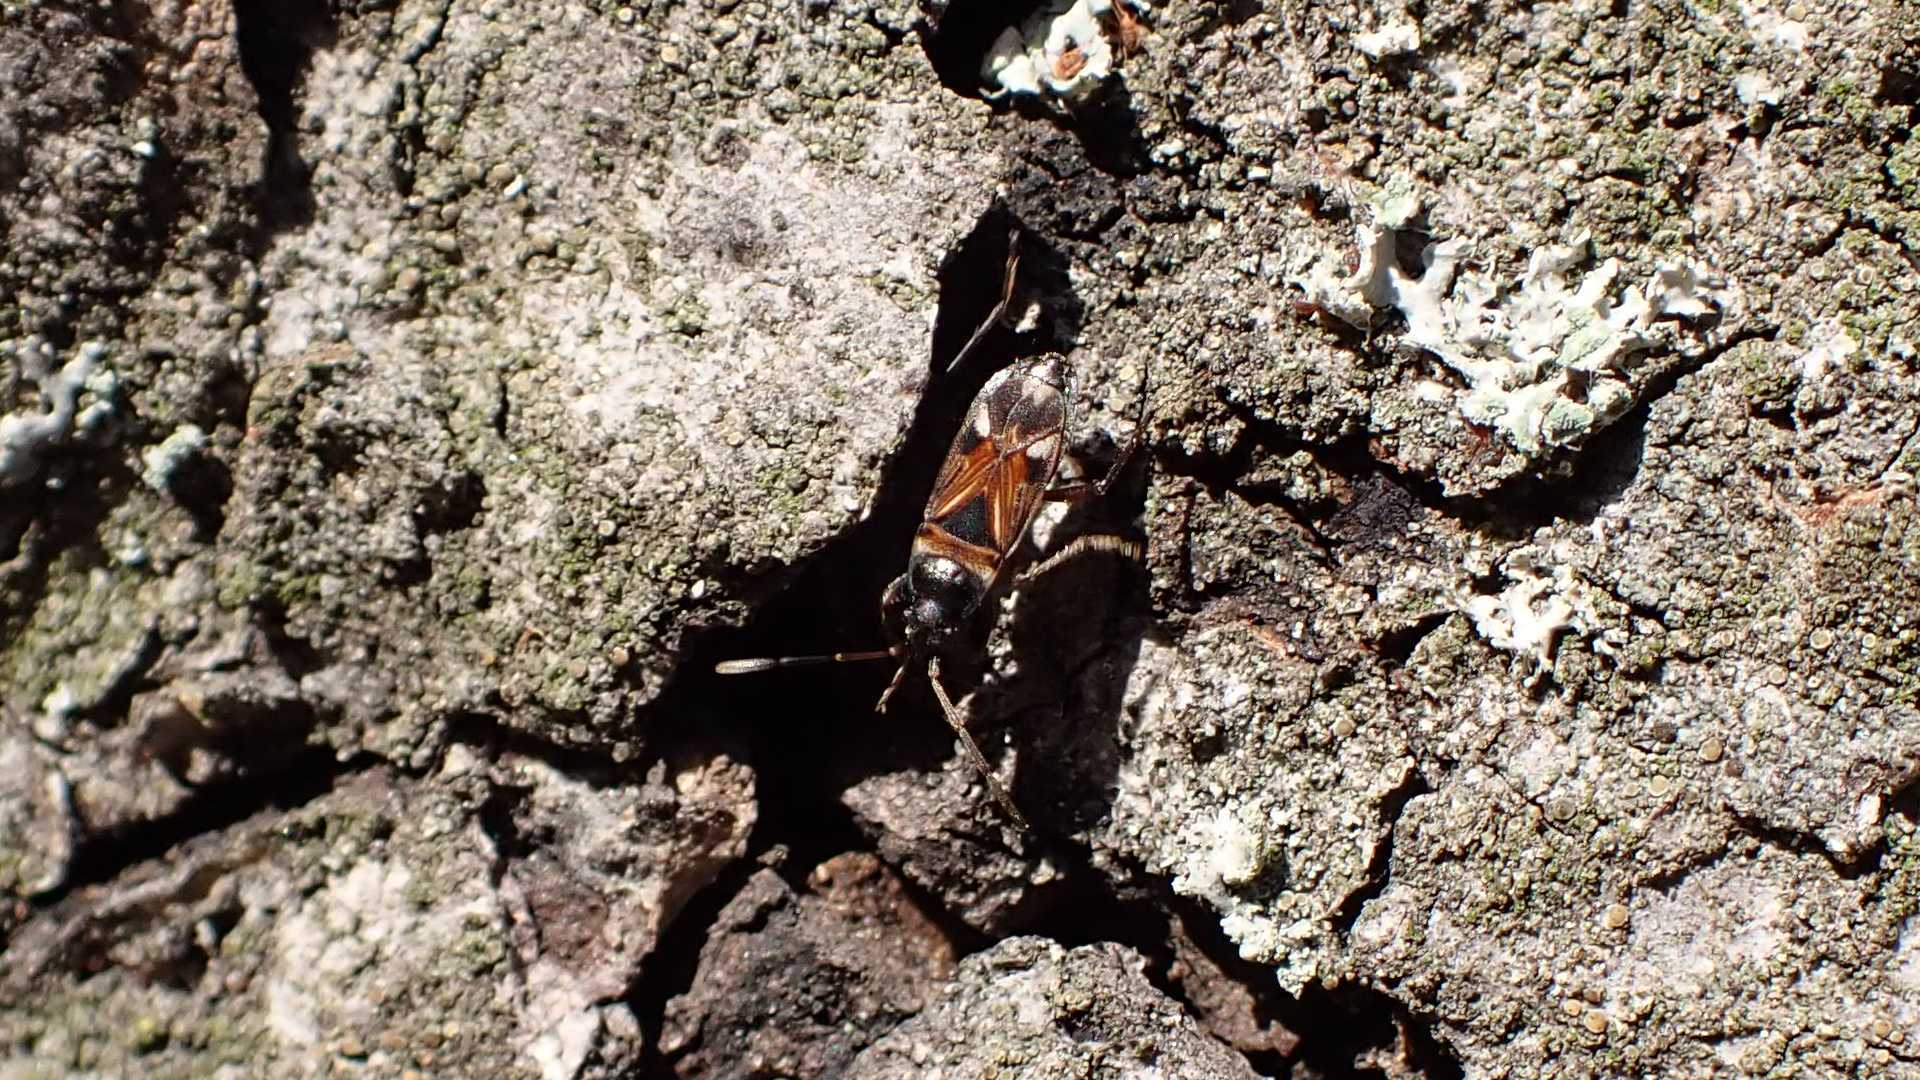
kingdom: Animalia
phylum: Arthropoda
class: Insecta
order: Hemiptera
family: Rhyparochromidae
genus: Raglius
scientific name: Raglius alboacuminatus
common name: Dirt-colored seed bug
